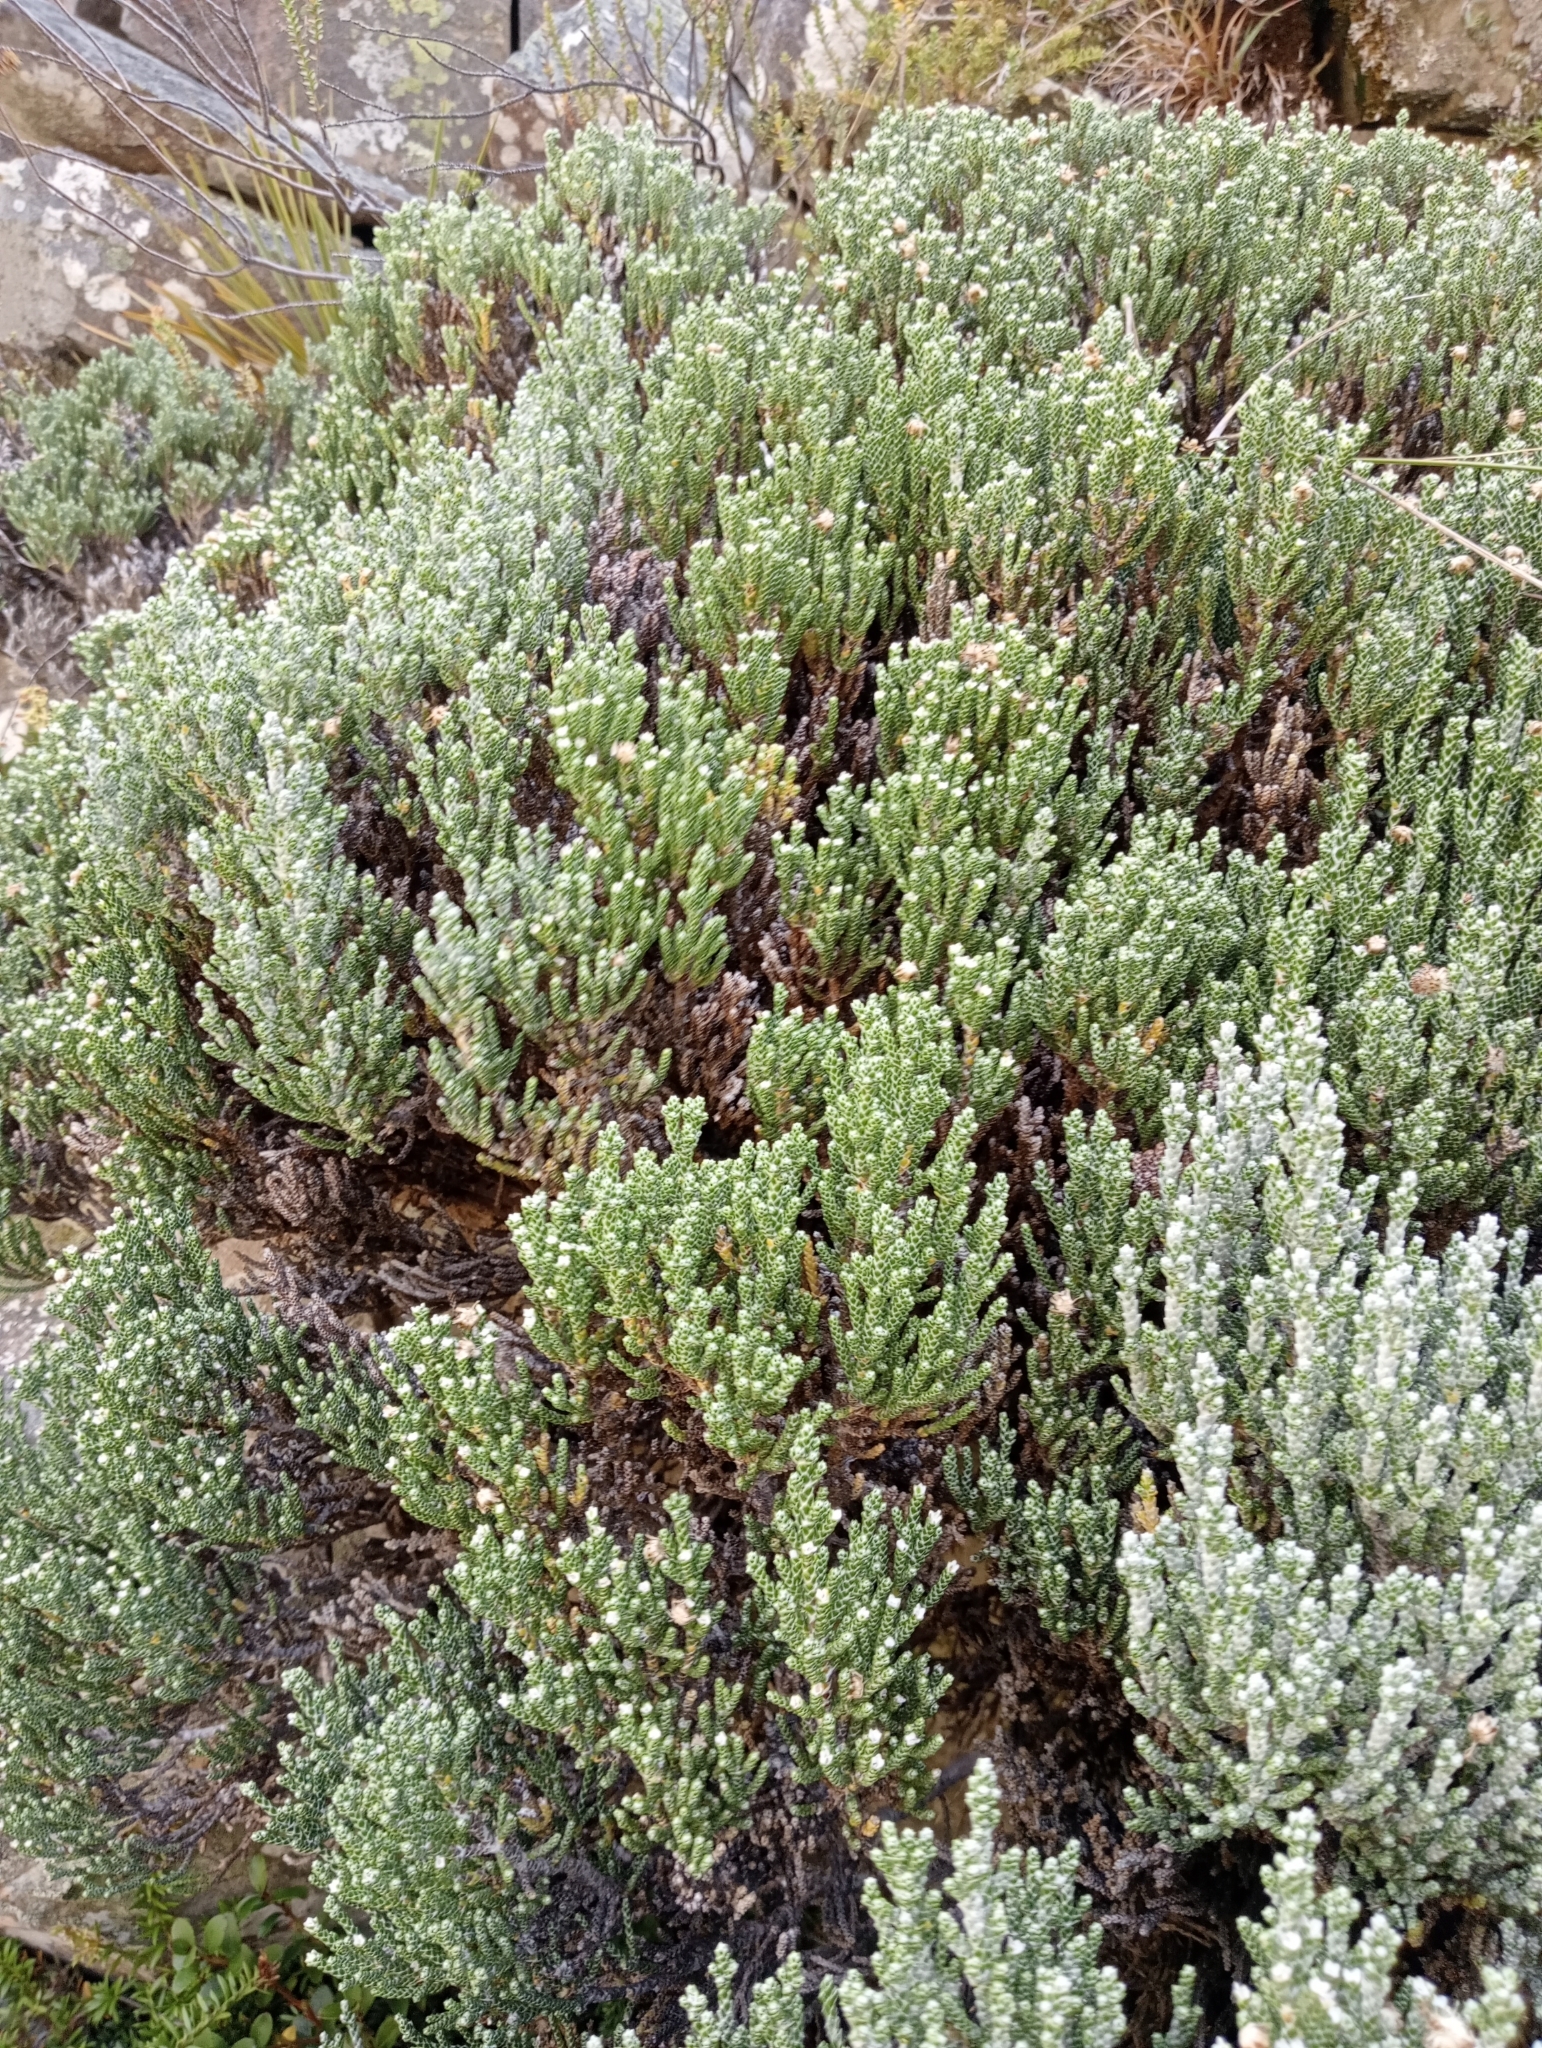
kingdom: Plantae
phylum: Tracheophyta
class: Magnoliopsida
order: Asterales
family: Asteraceae
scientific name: Asteraceae
